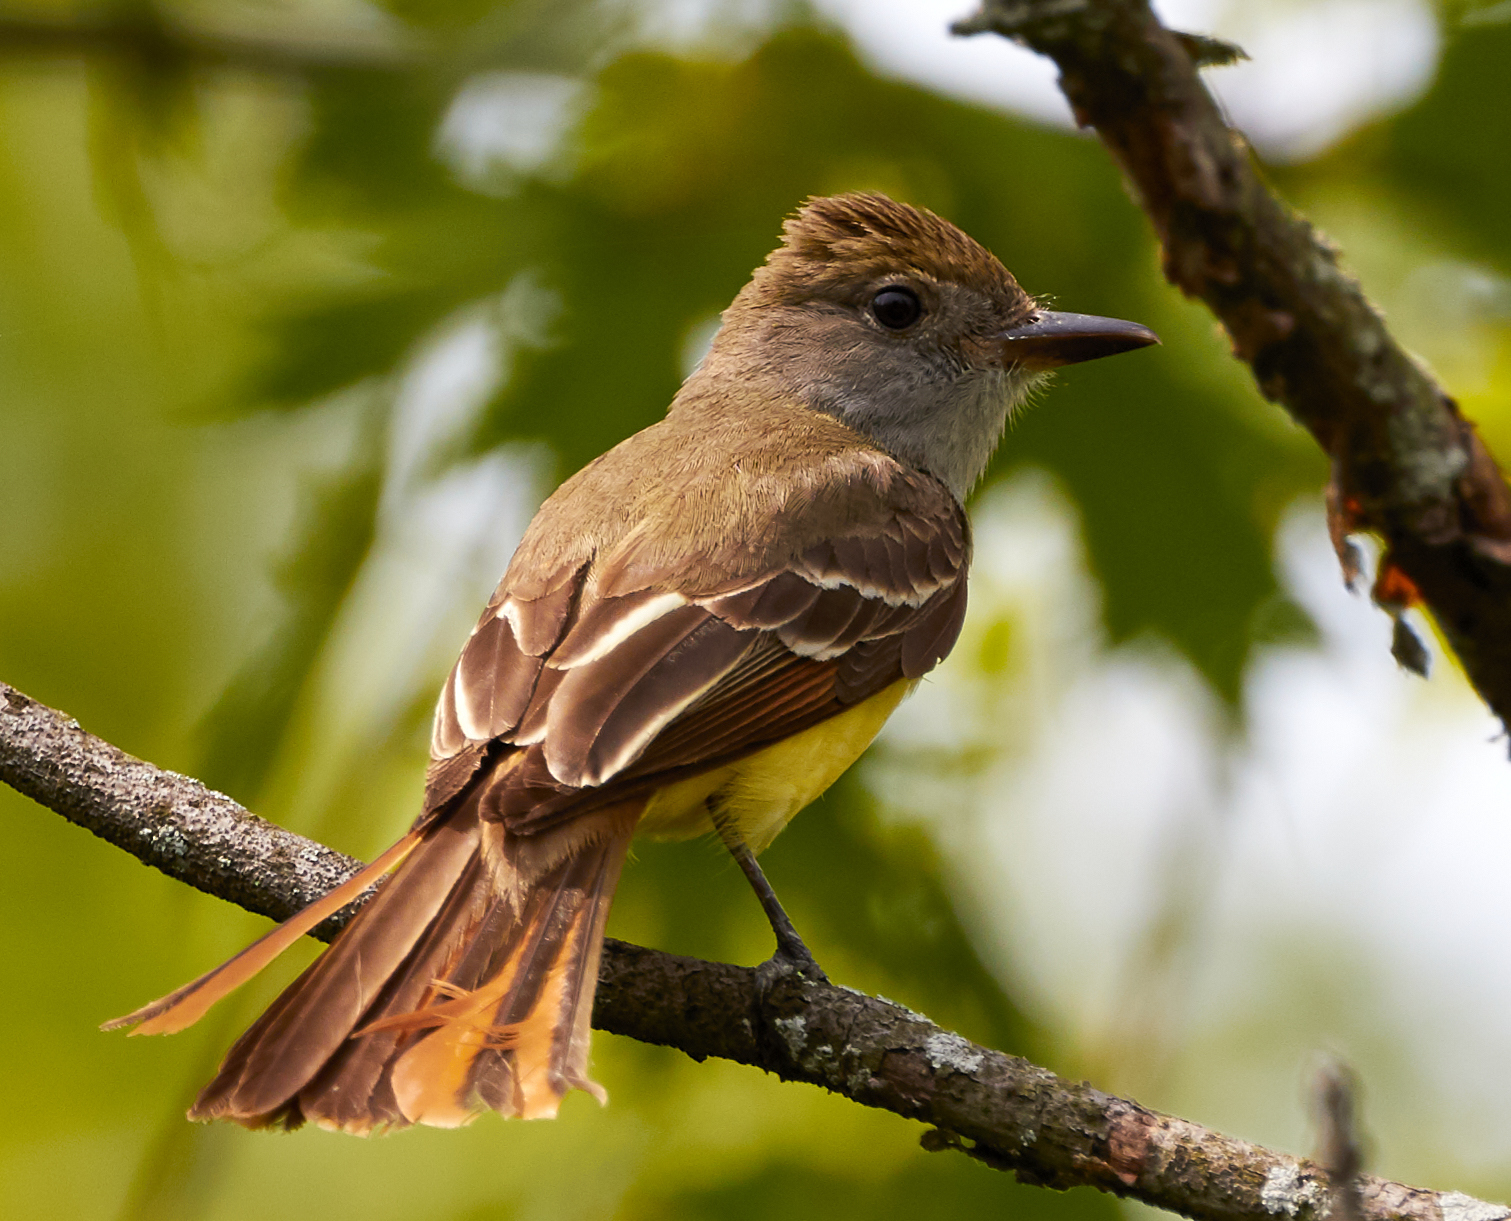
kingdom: Animalia
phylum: Chordata
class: Aves
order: Passeriformes
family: Tyrannidae
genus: Myiarchus
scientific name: Myiarchus crinitus
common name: Great crested flycatcher
